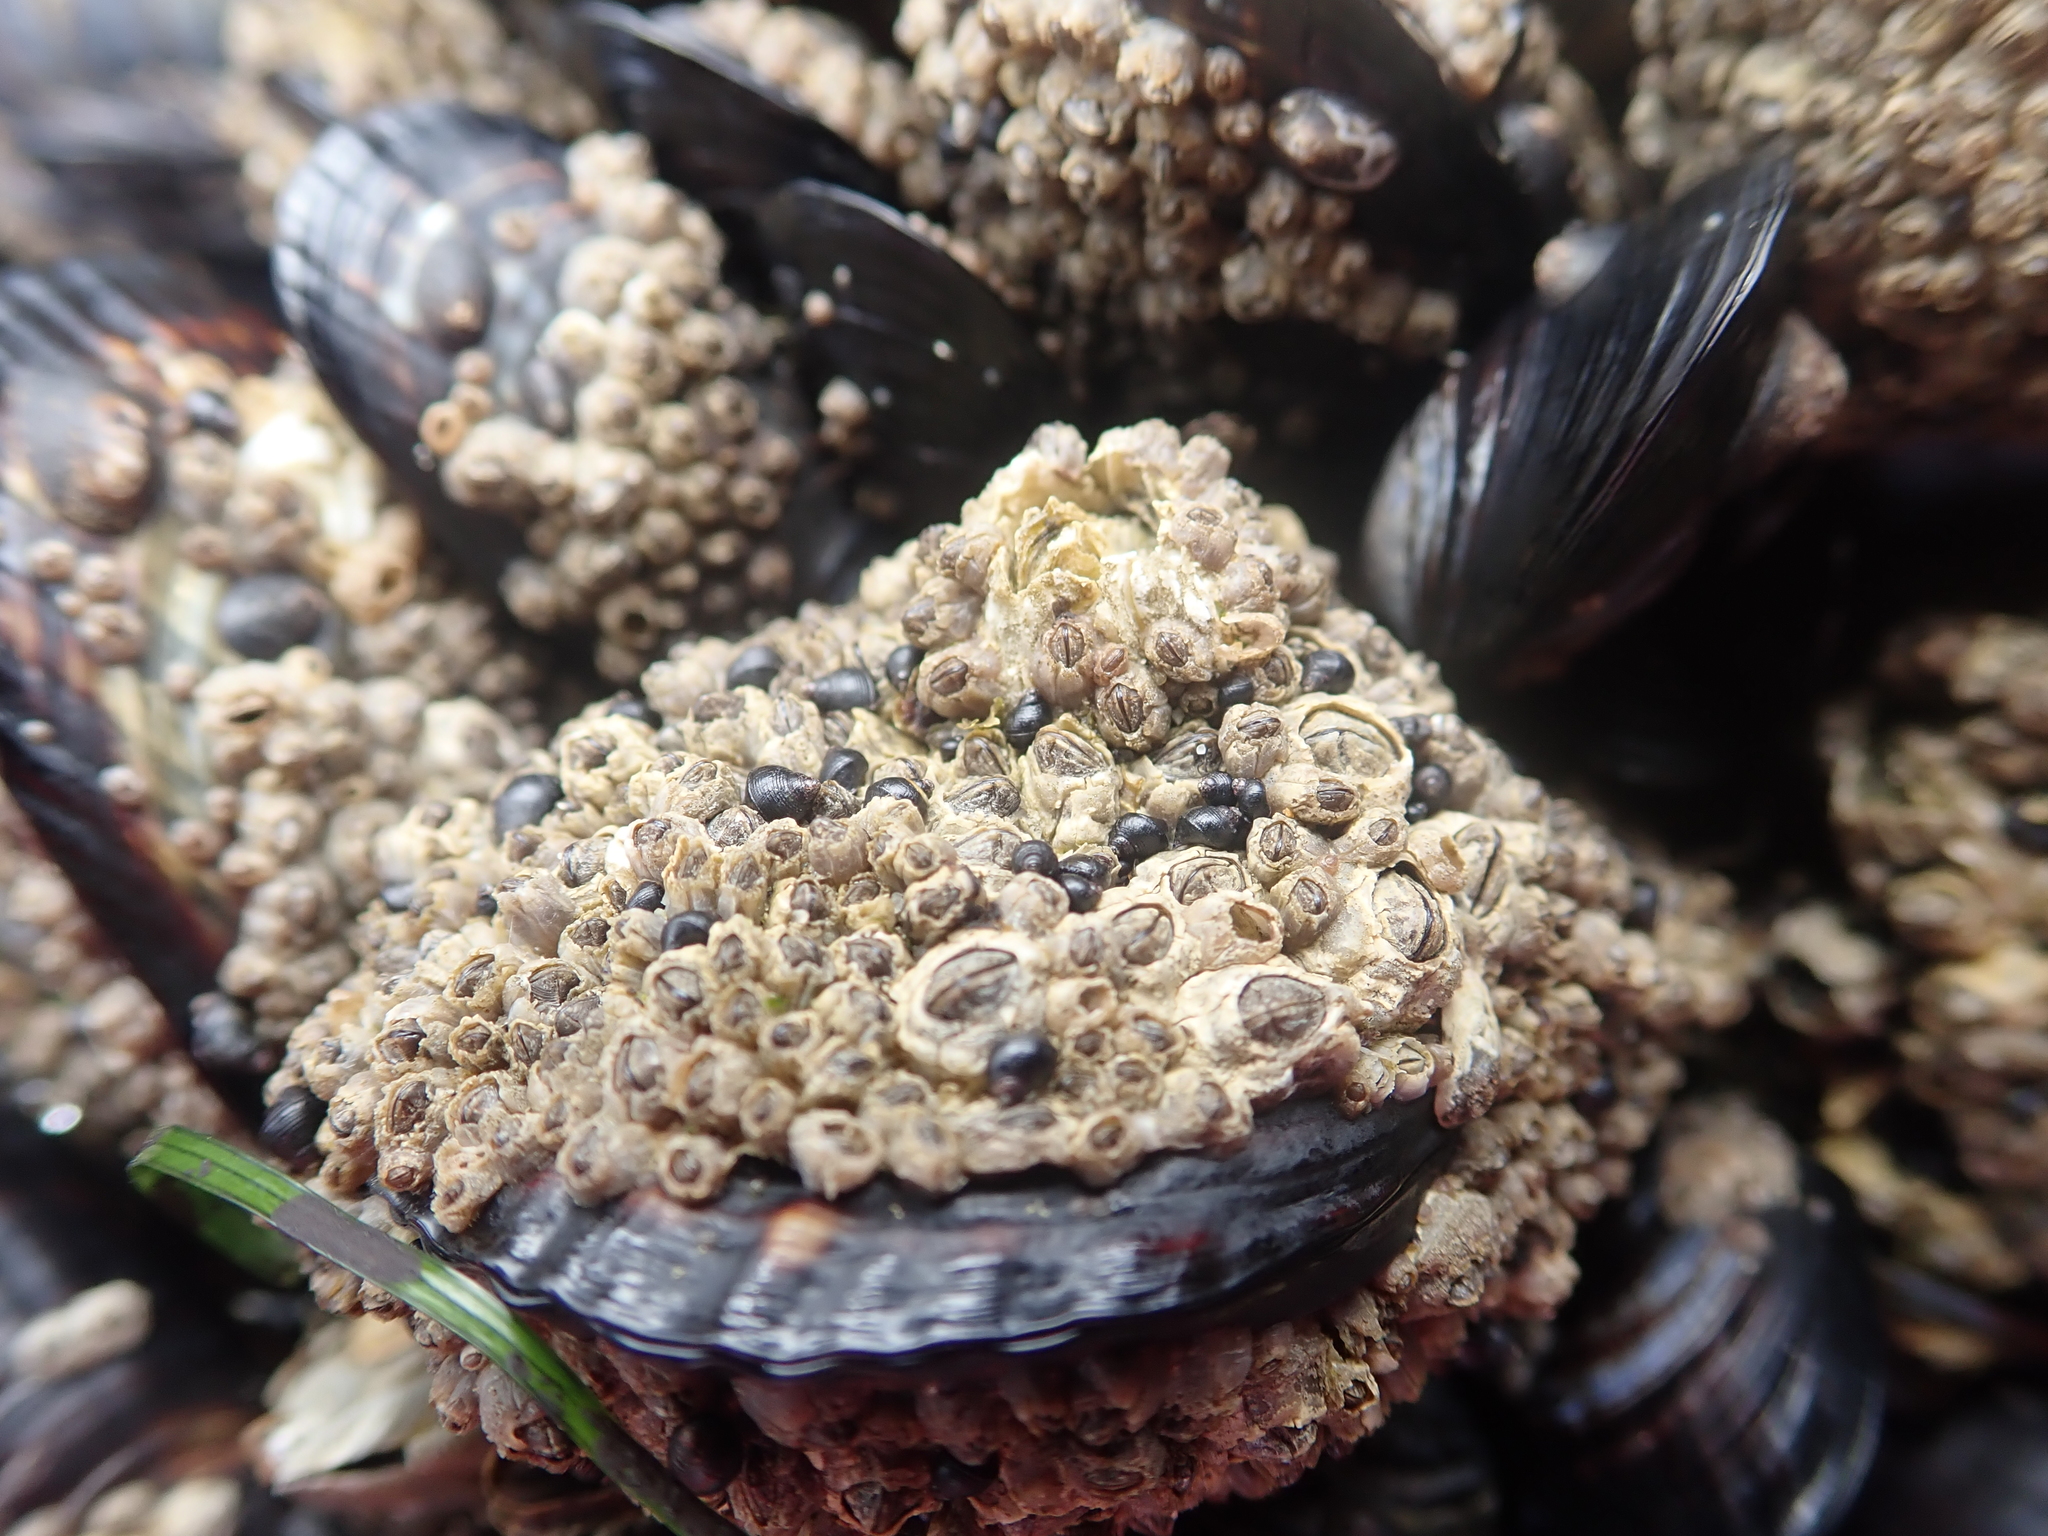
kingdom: Animalia
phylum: Arthropoda
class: Maxillopoda
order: Sessilia
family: Chthamalidae
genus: Chthamalus
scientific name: Chthamalus dalli
